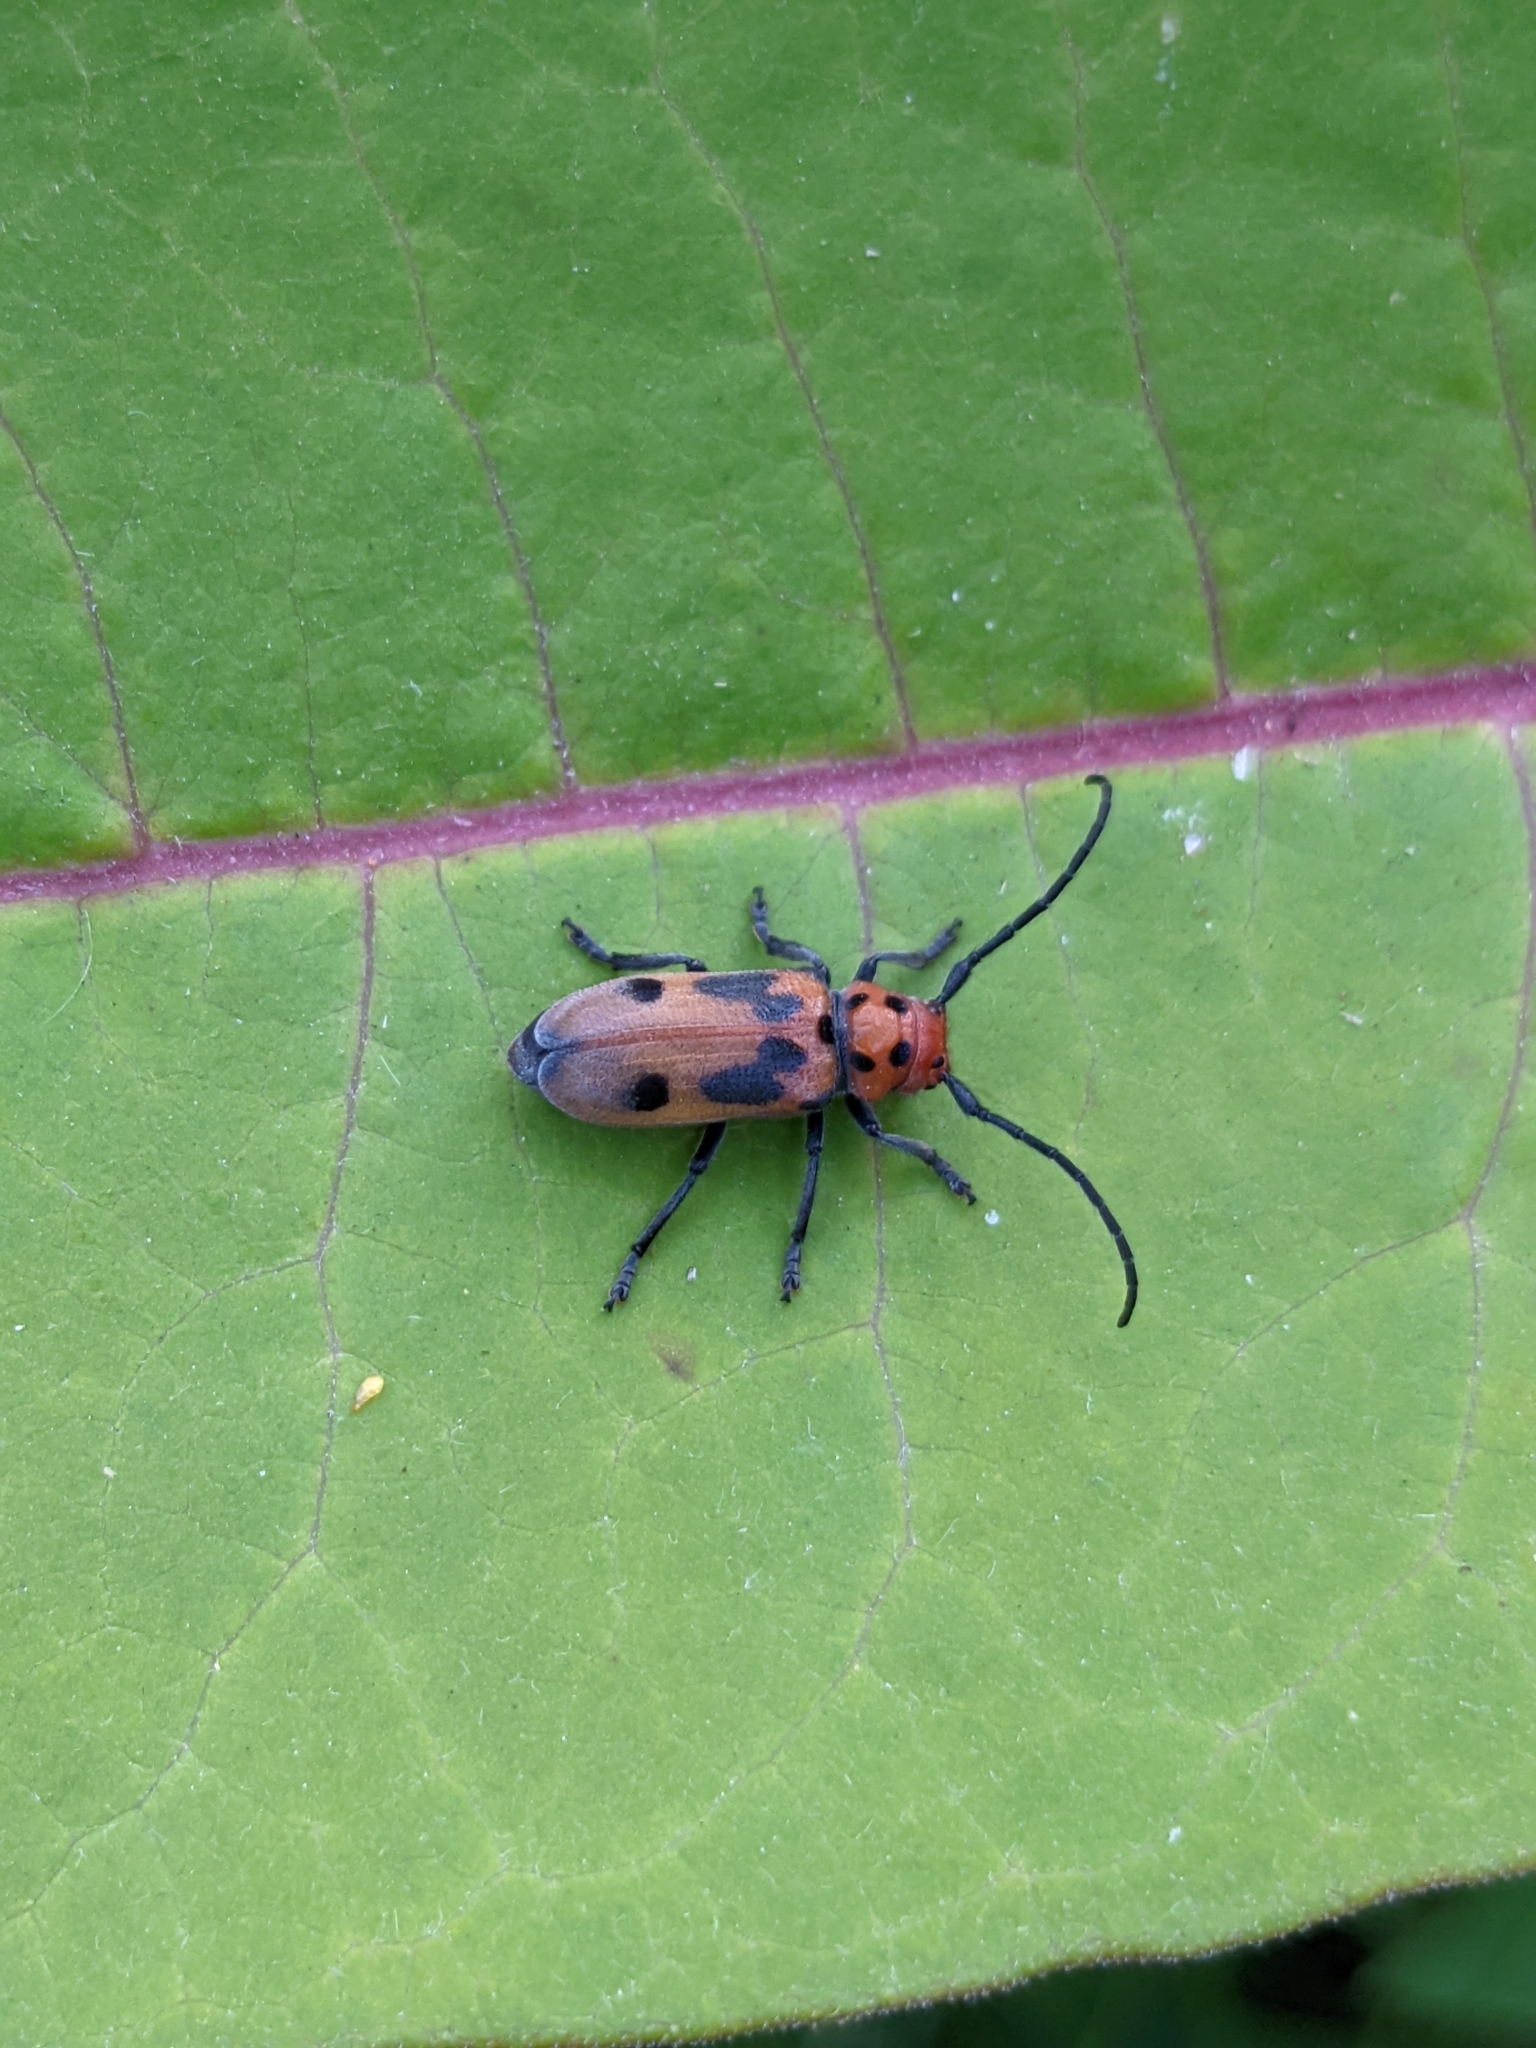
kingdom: Animalia
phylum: Arthropoda
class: Insecta
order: Coleoptera
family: Cerambycidae
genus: Tetraopes
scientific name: Tetraopes tetrophthalmus
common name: Red milkweed beetle
